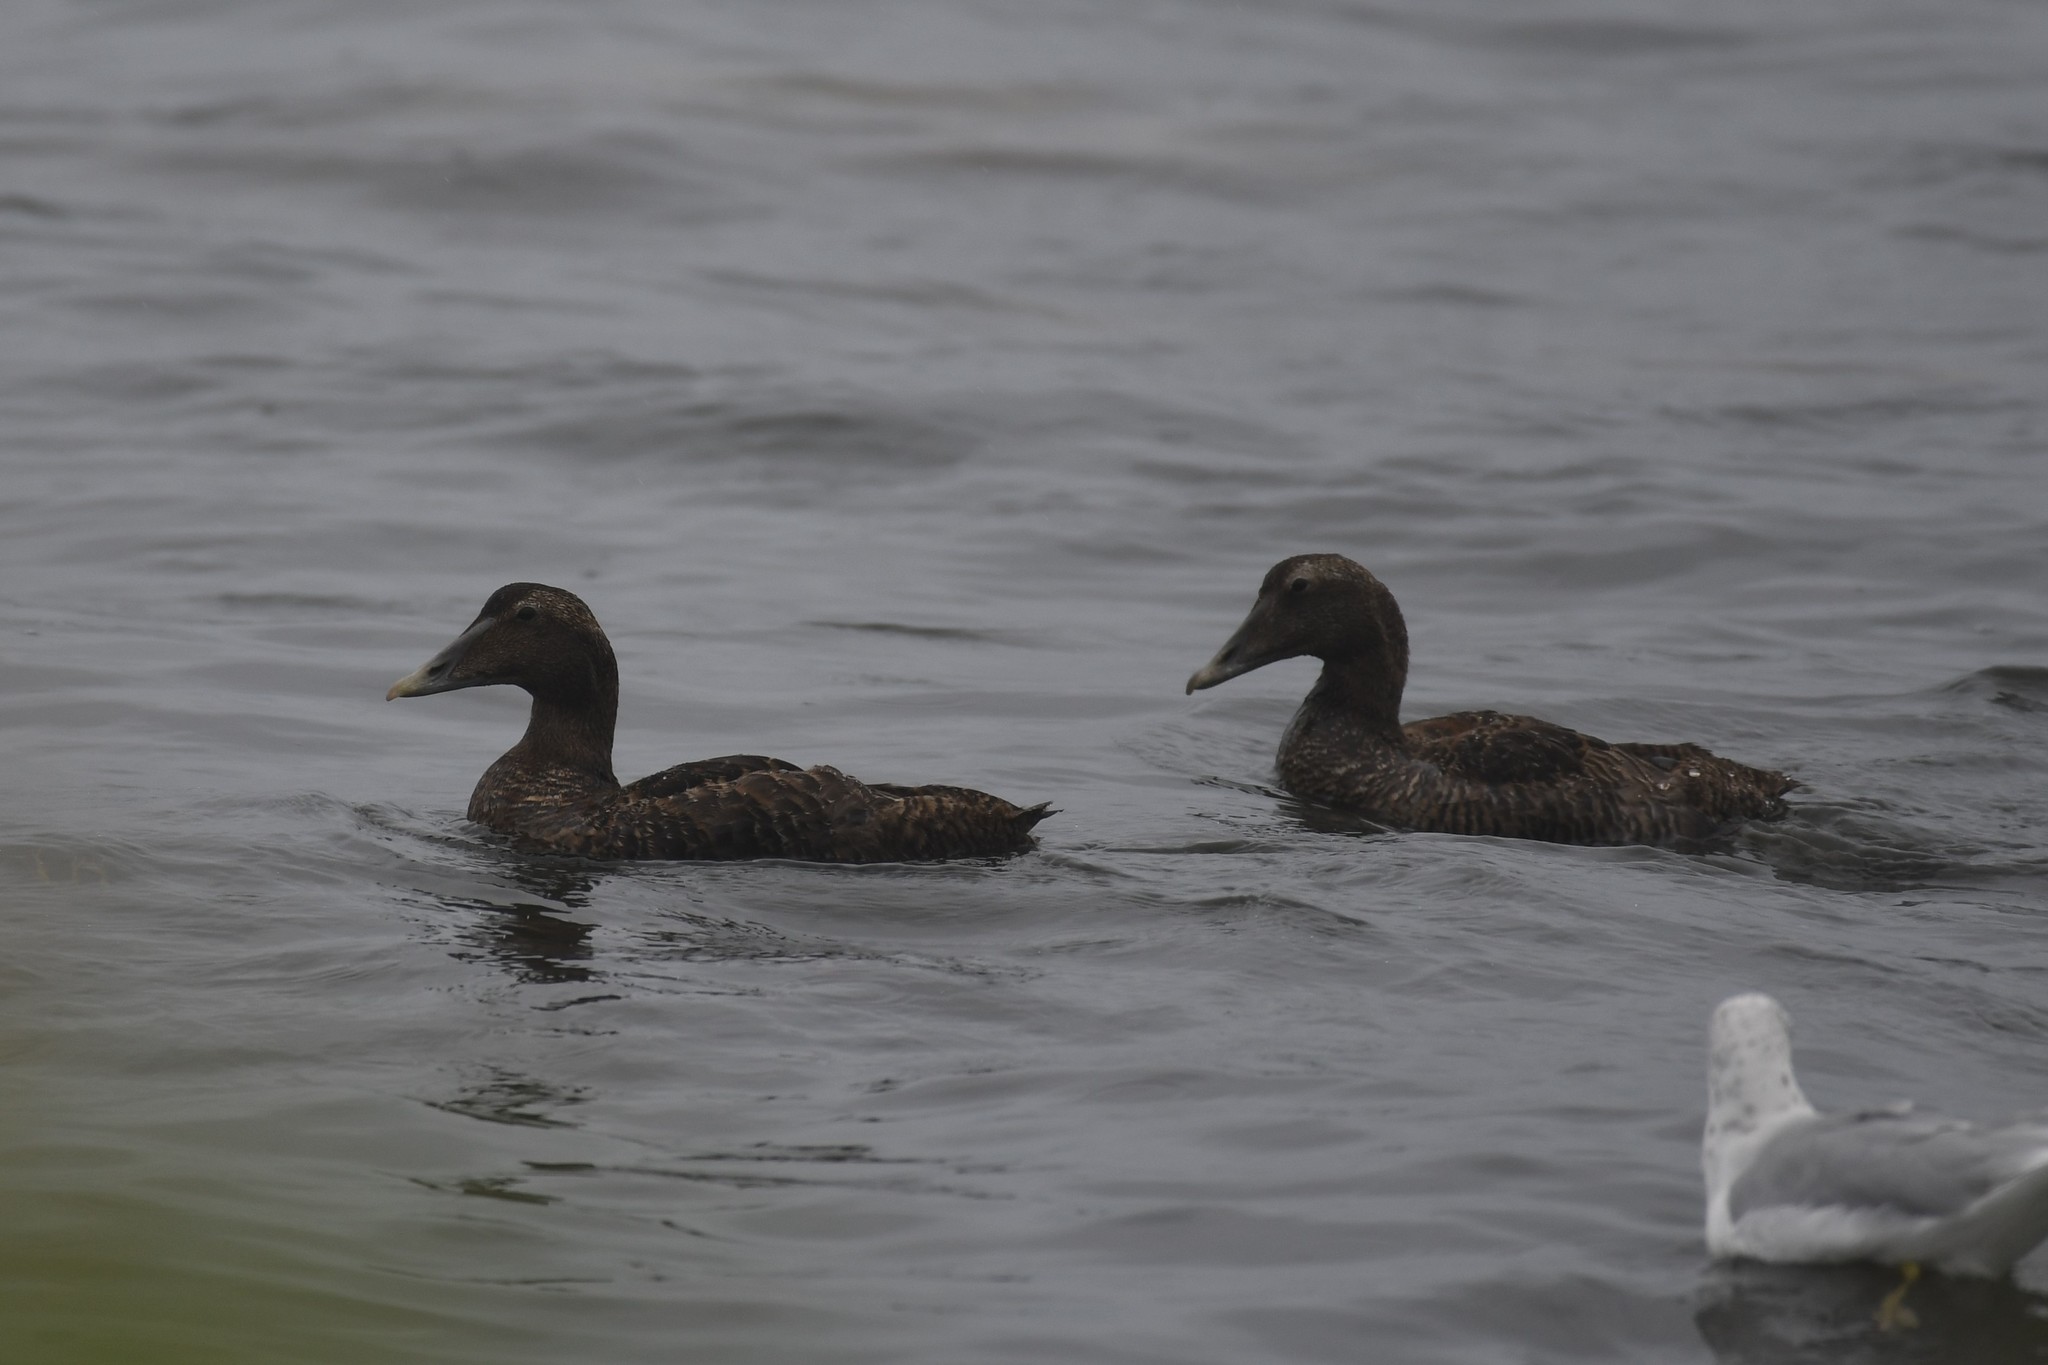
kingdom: Animalia
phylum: Chordata
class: Aves
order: Anseriformes
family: Anatidae
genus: Somateria
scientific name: Somateria mollissima
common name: Common eider
